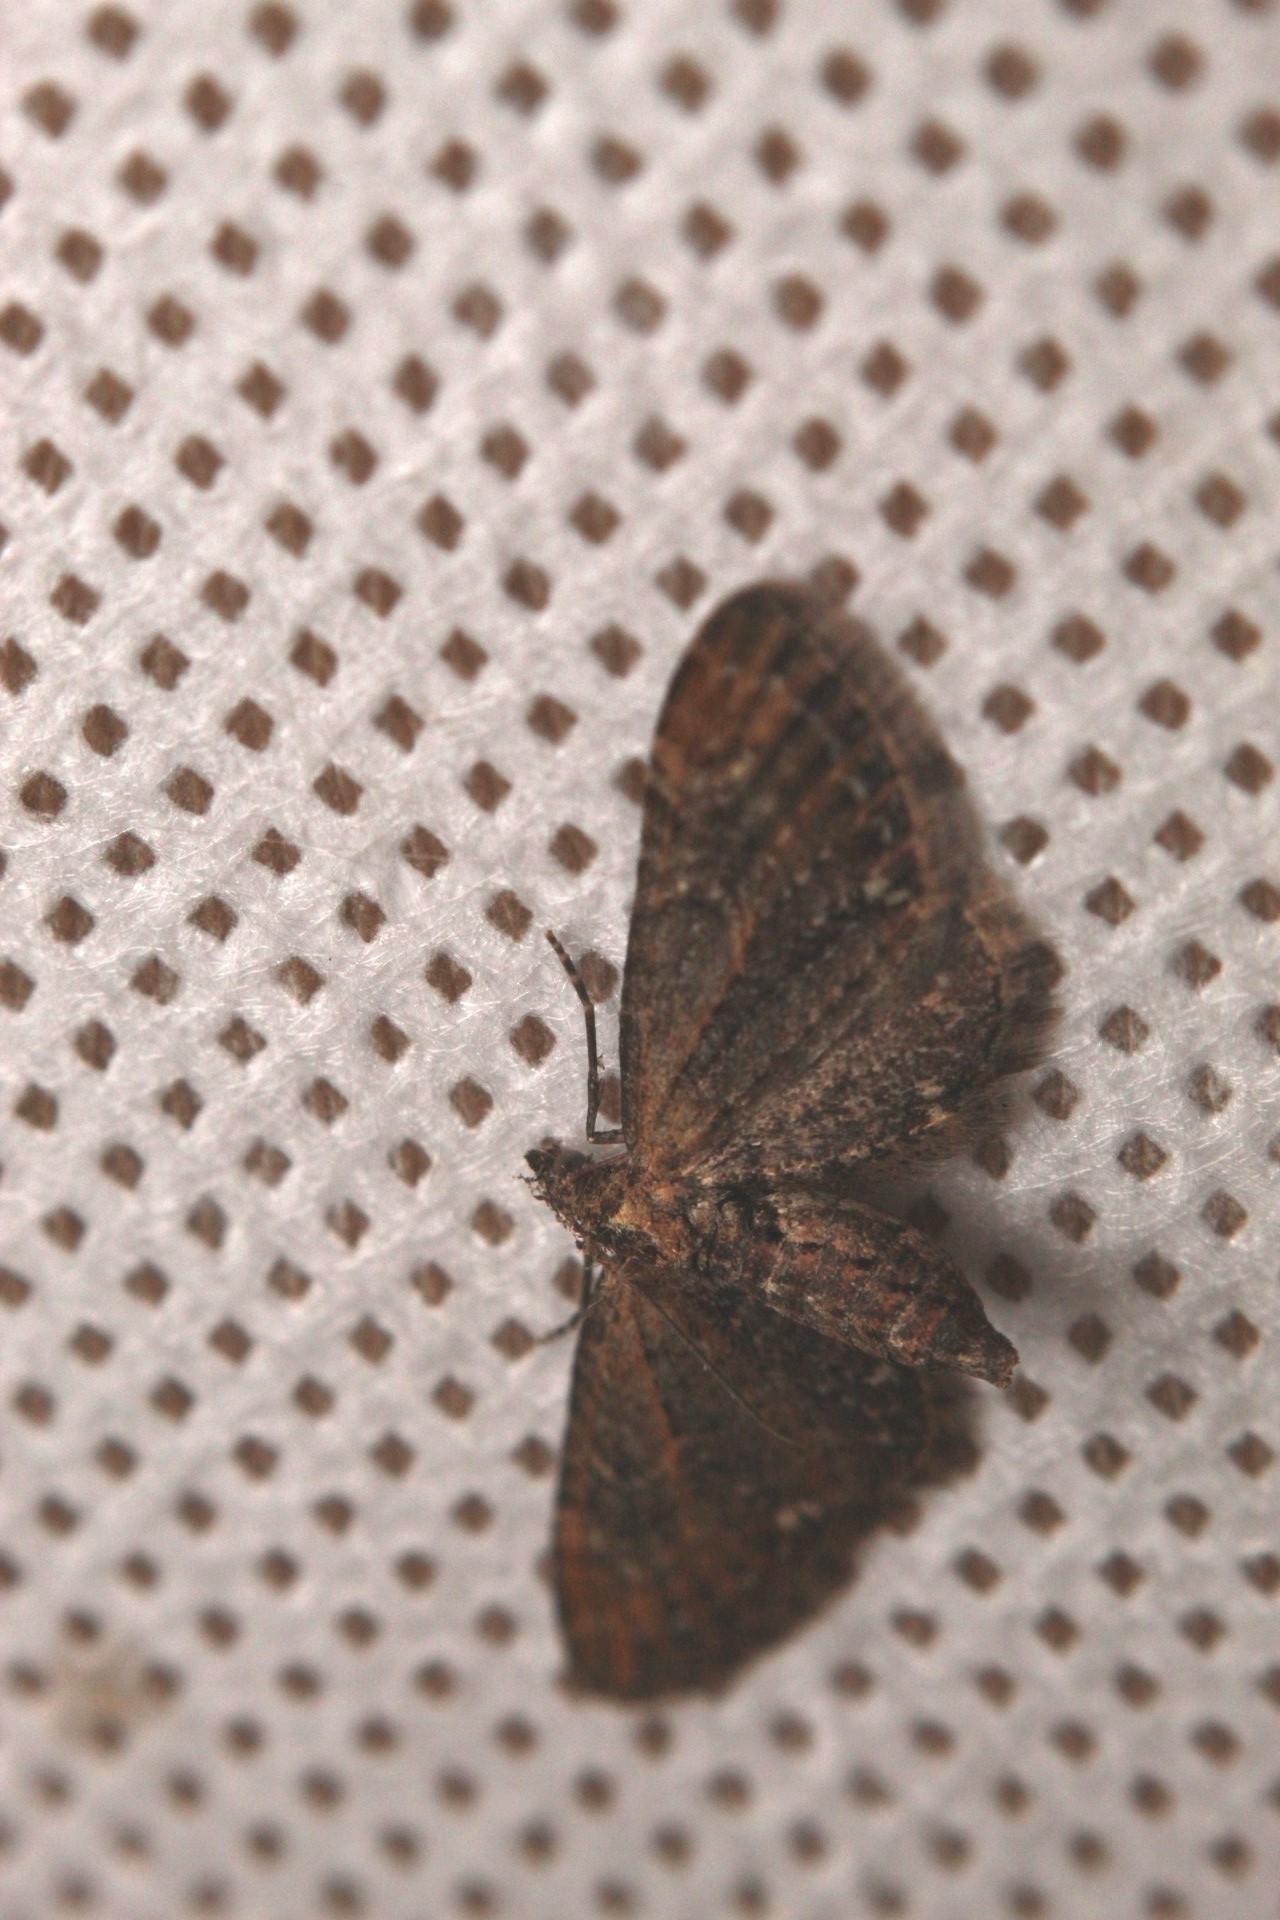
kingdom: Animalia
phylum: Arthropoda
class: Insecta
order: Lepidoptera
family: Geometridae
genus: Eupithecia
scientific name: Eupithecia vulgata
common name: Common pug
